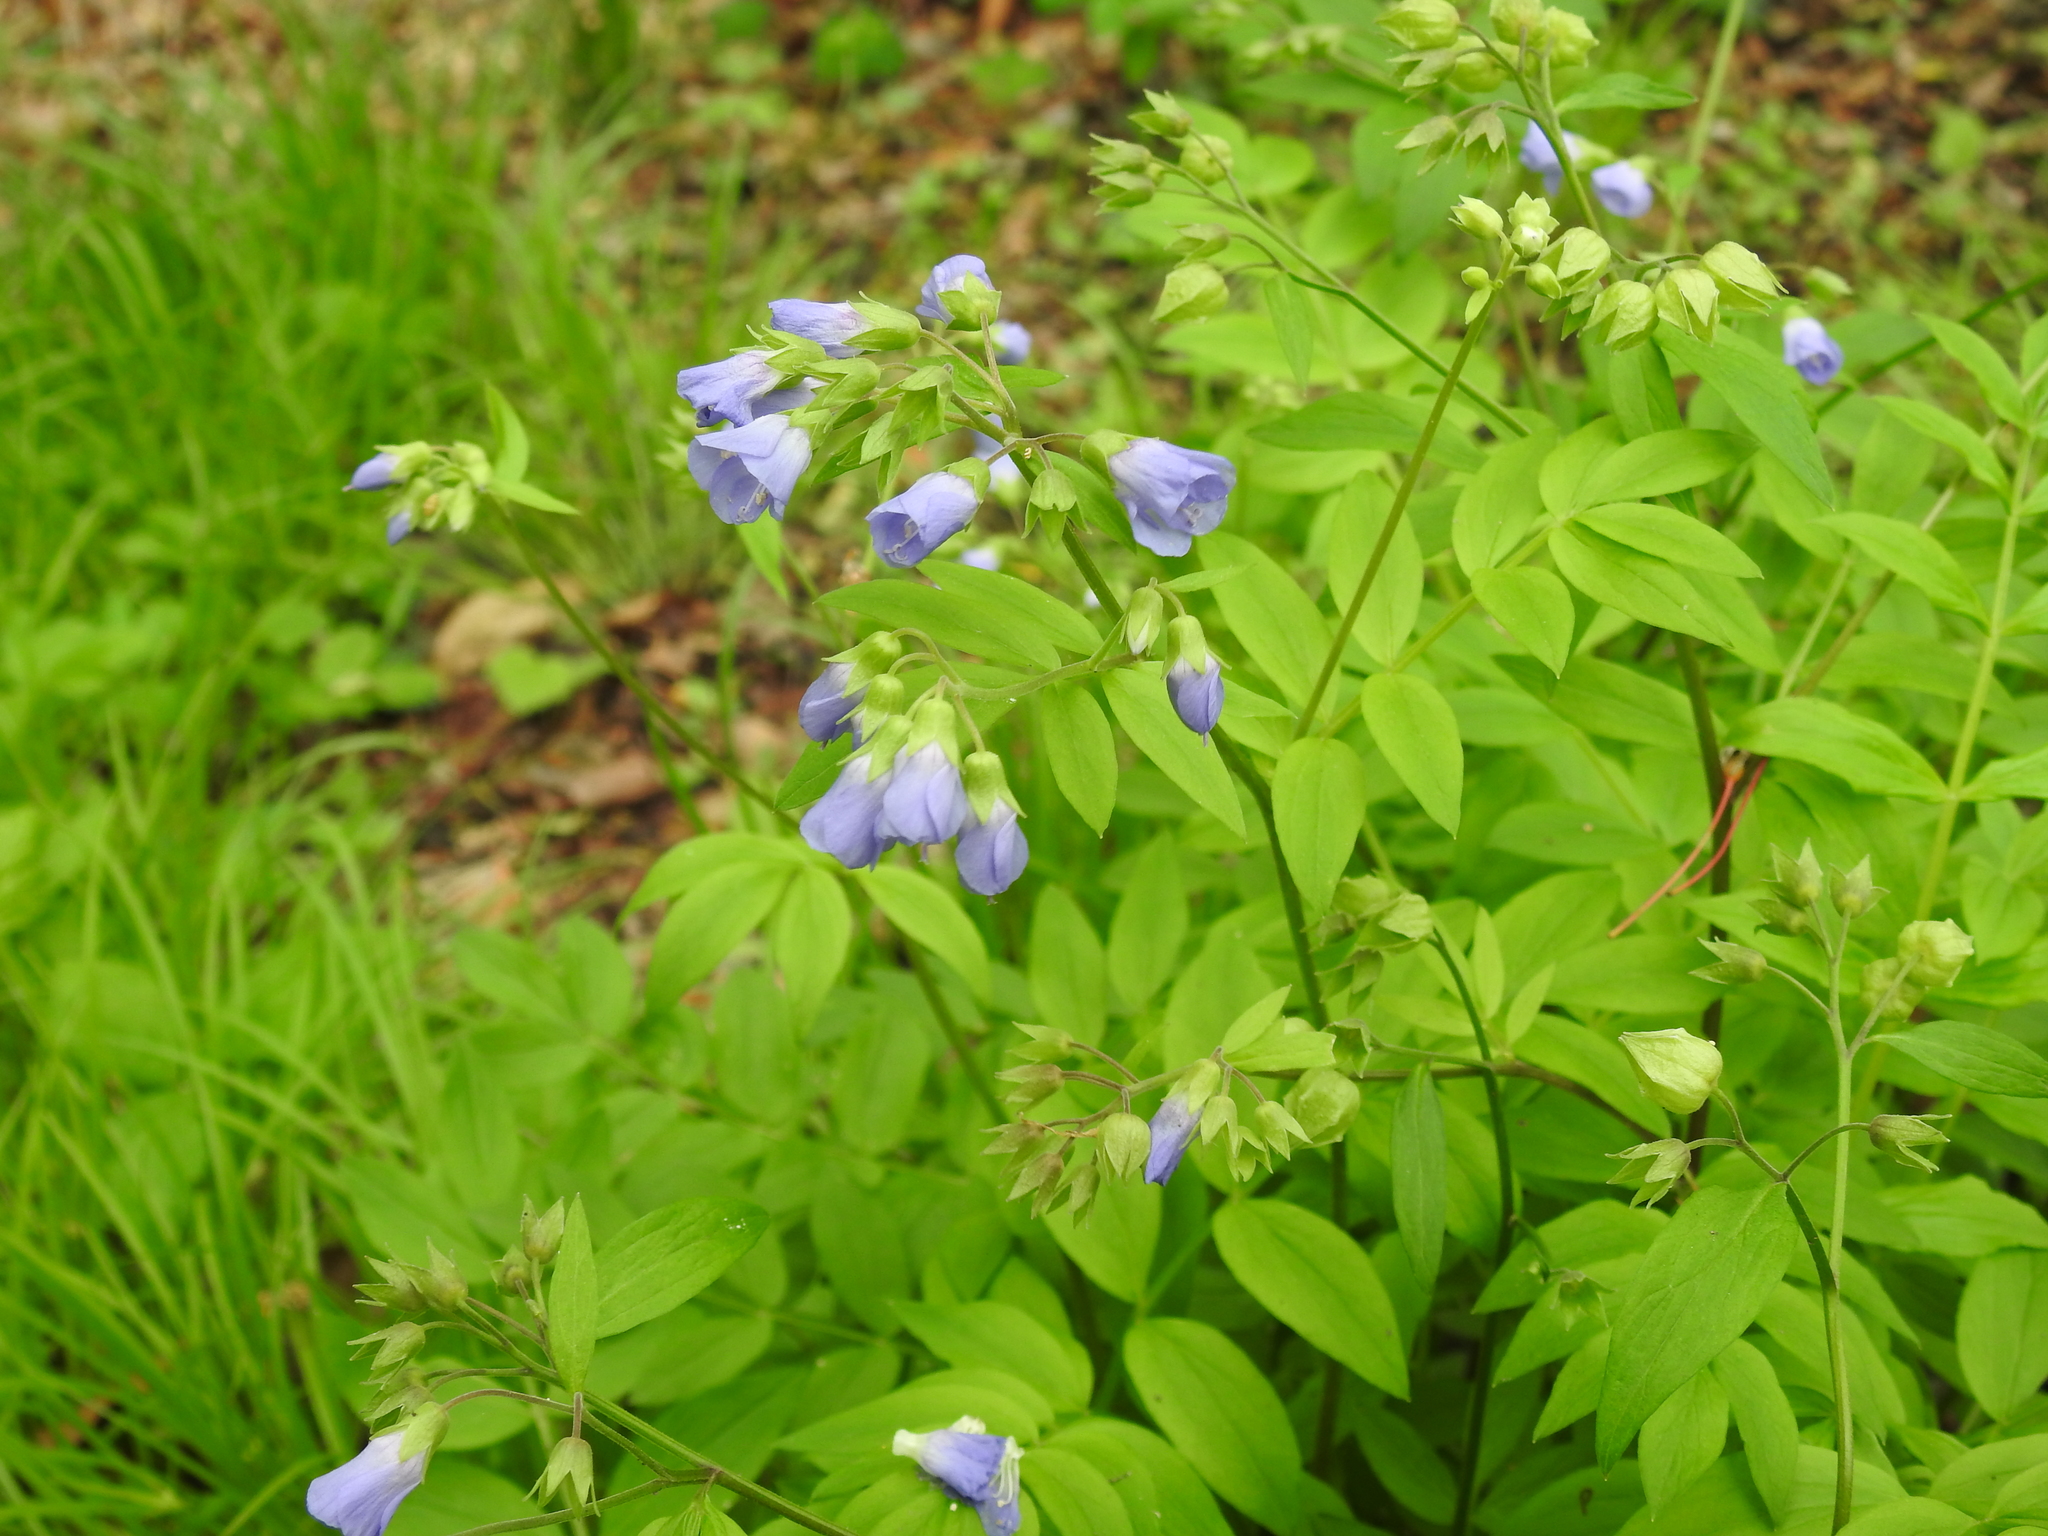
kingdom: Plantae
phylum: Tracheophyta
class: Magnoliopsida
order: Ericales
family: Polemoniaceae
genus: Polemonium
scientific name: Polemonium reptans
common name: Creeping jacob's-ladder
